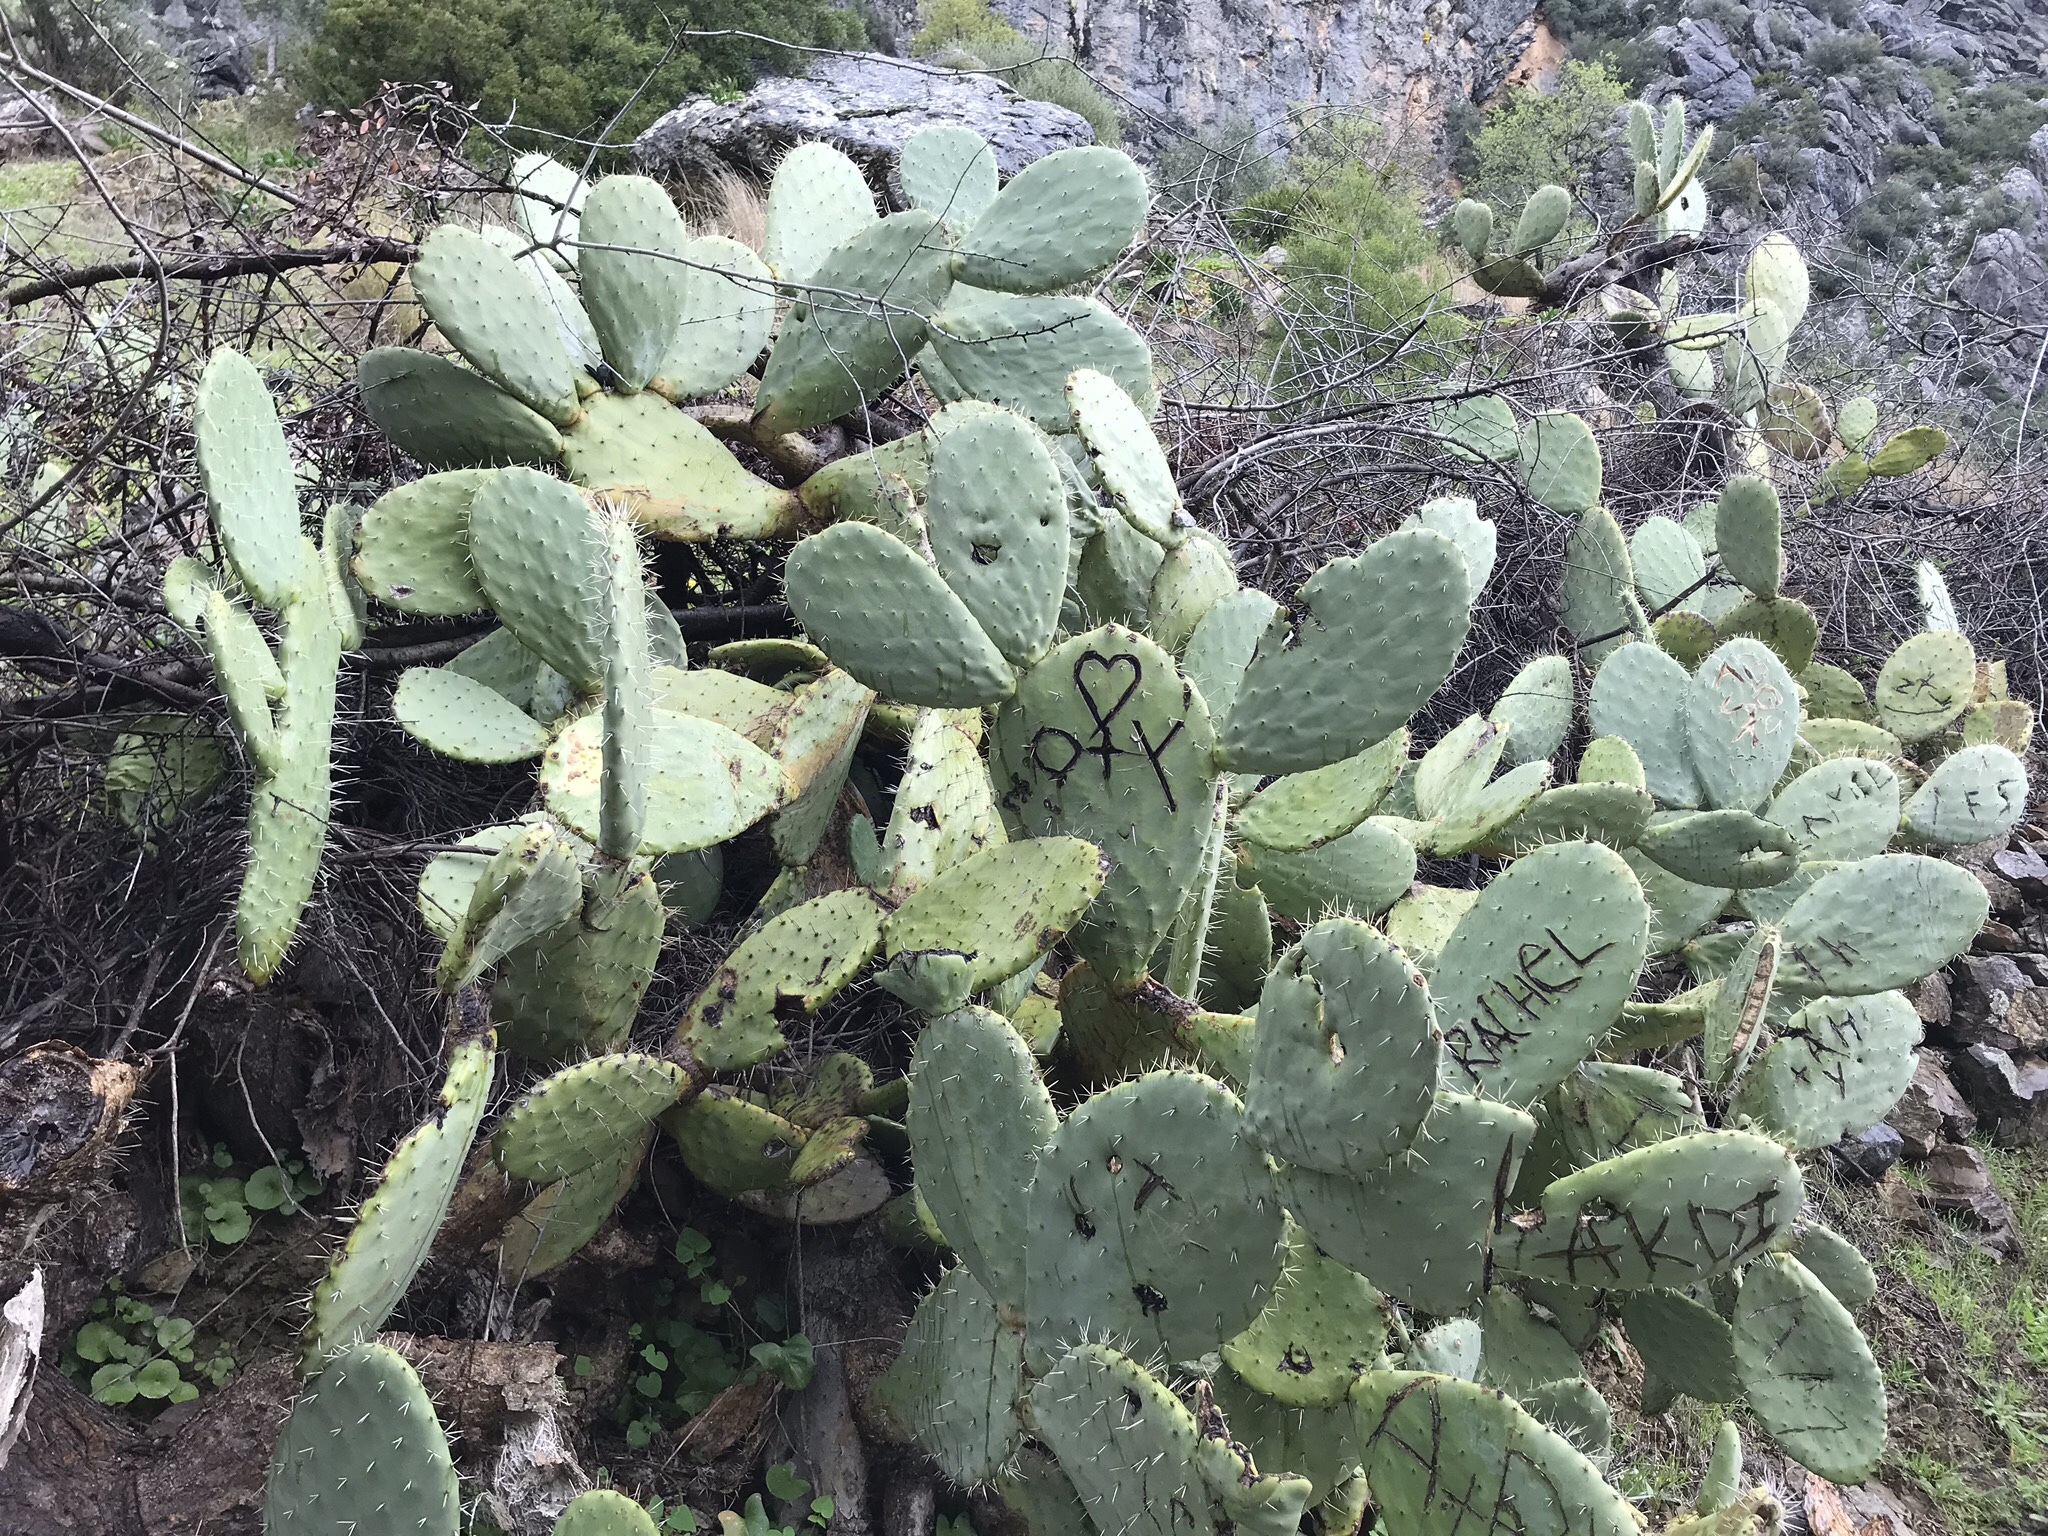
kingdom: Plantae
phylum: Tracheophyta
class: Magnoliopsida
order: Caryophyllales
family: Cactaceae
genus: Opuntia
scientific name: Opuntia ficus-indica
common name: Barbary fig
